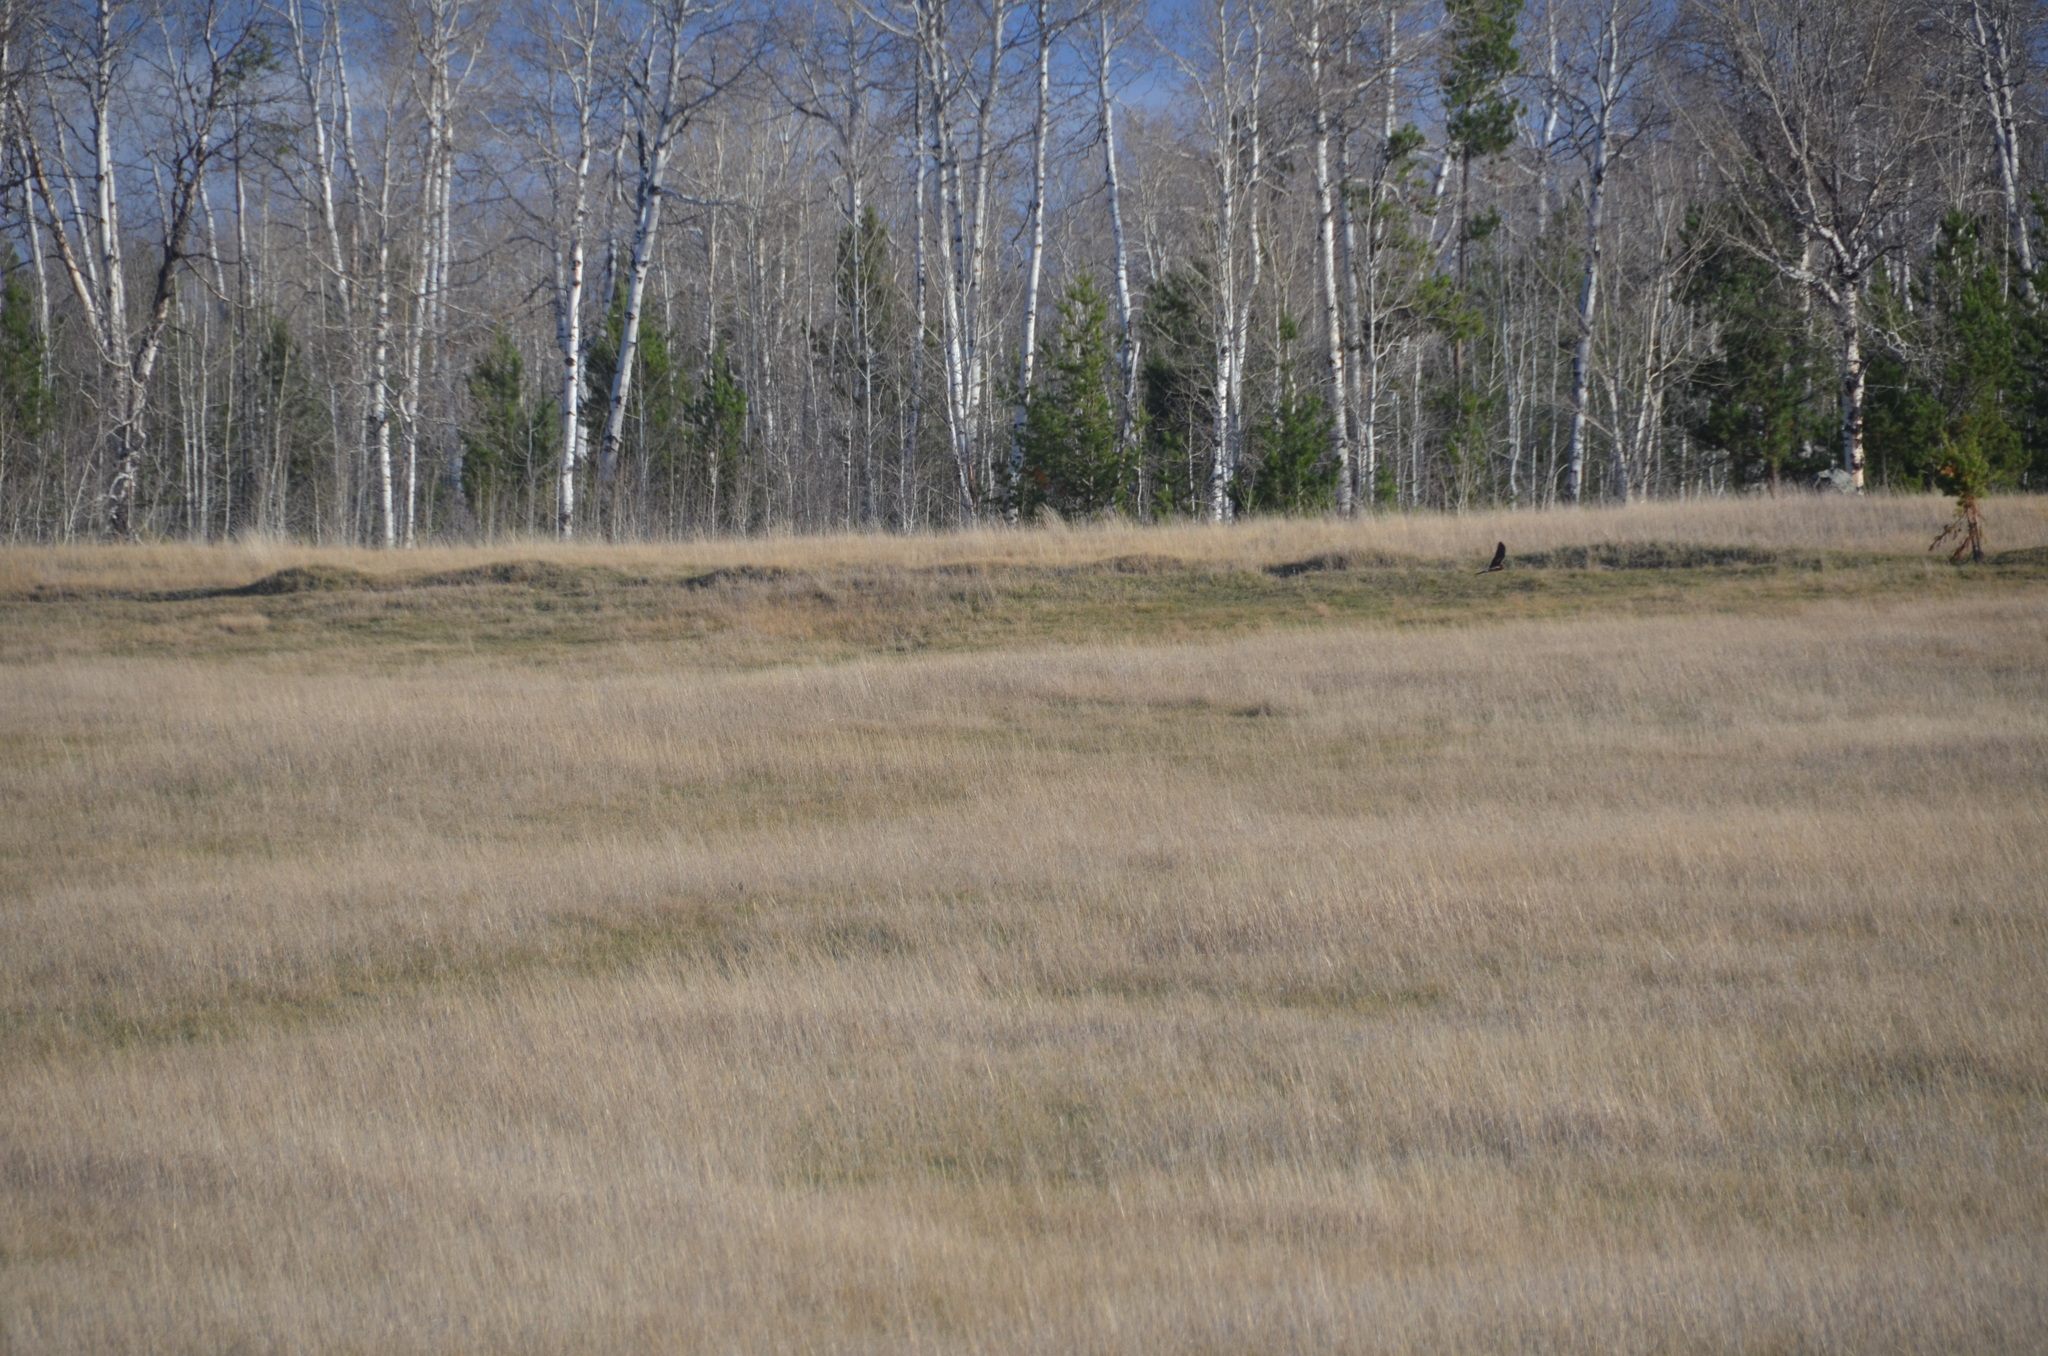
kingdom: Animalia
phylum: Chordata
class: Aves
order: Accipitriformes
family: Accipitridae
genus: Circus
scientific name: Circus cyaneus
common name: Hen harrier
